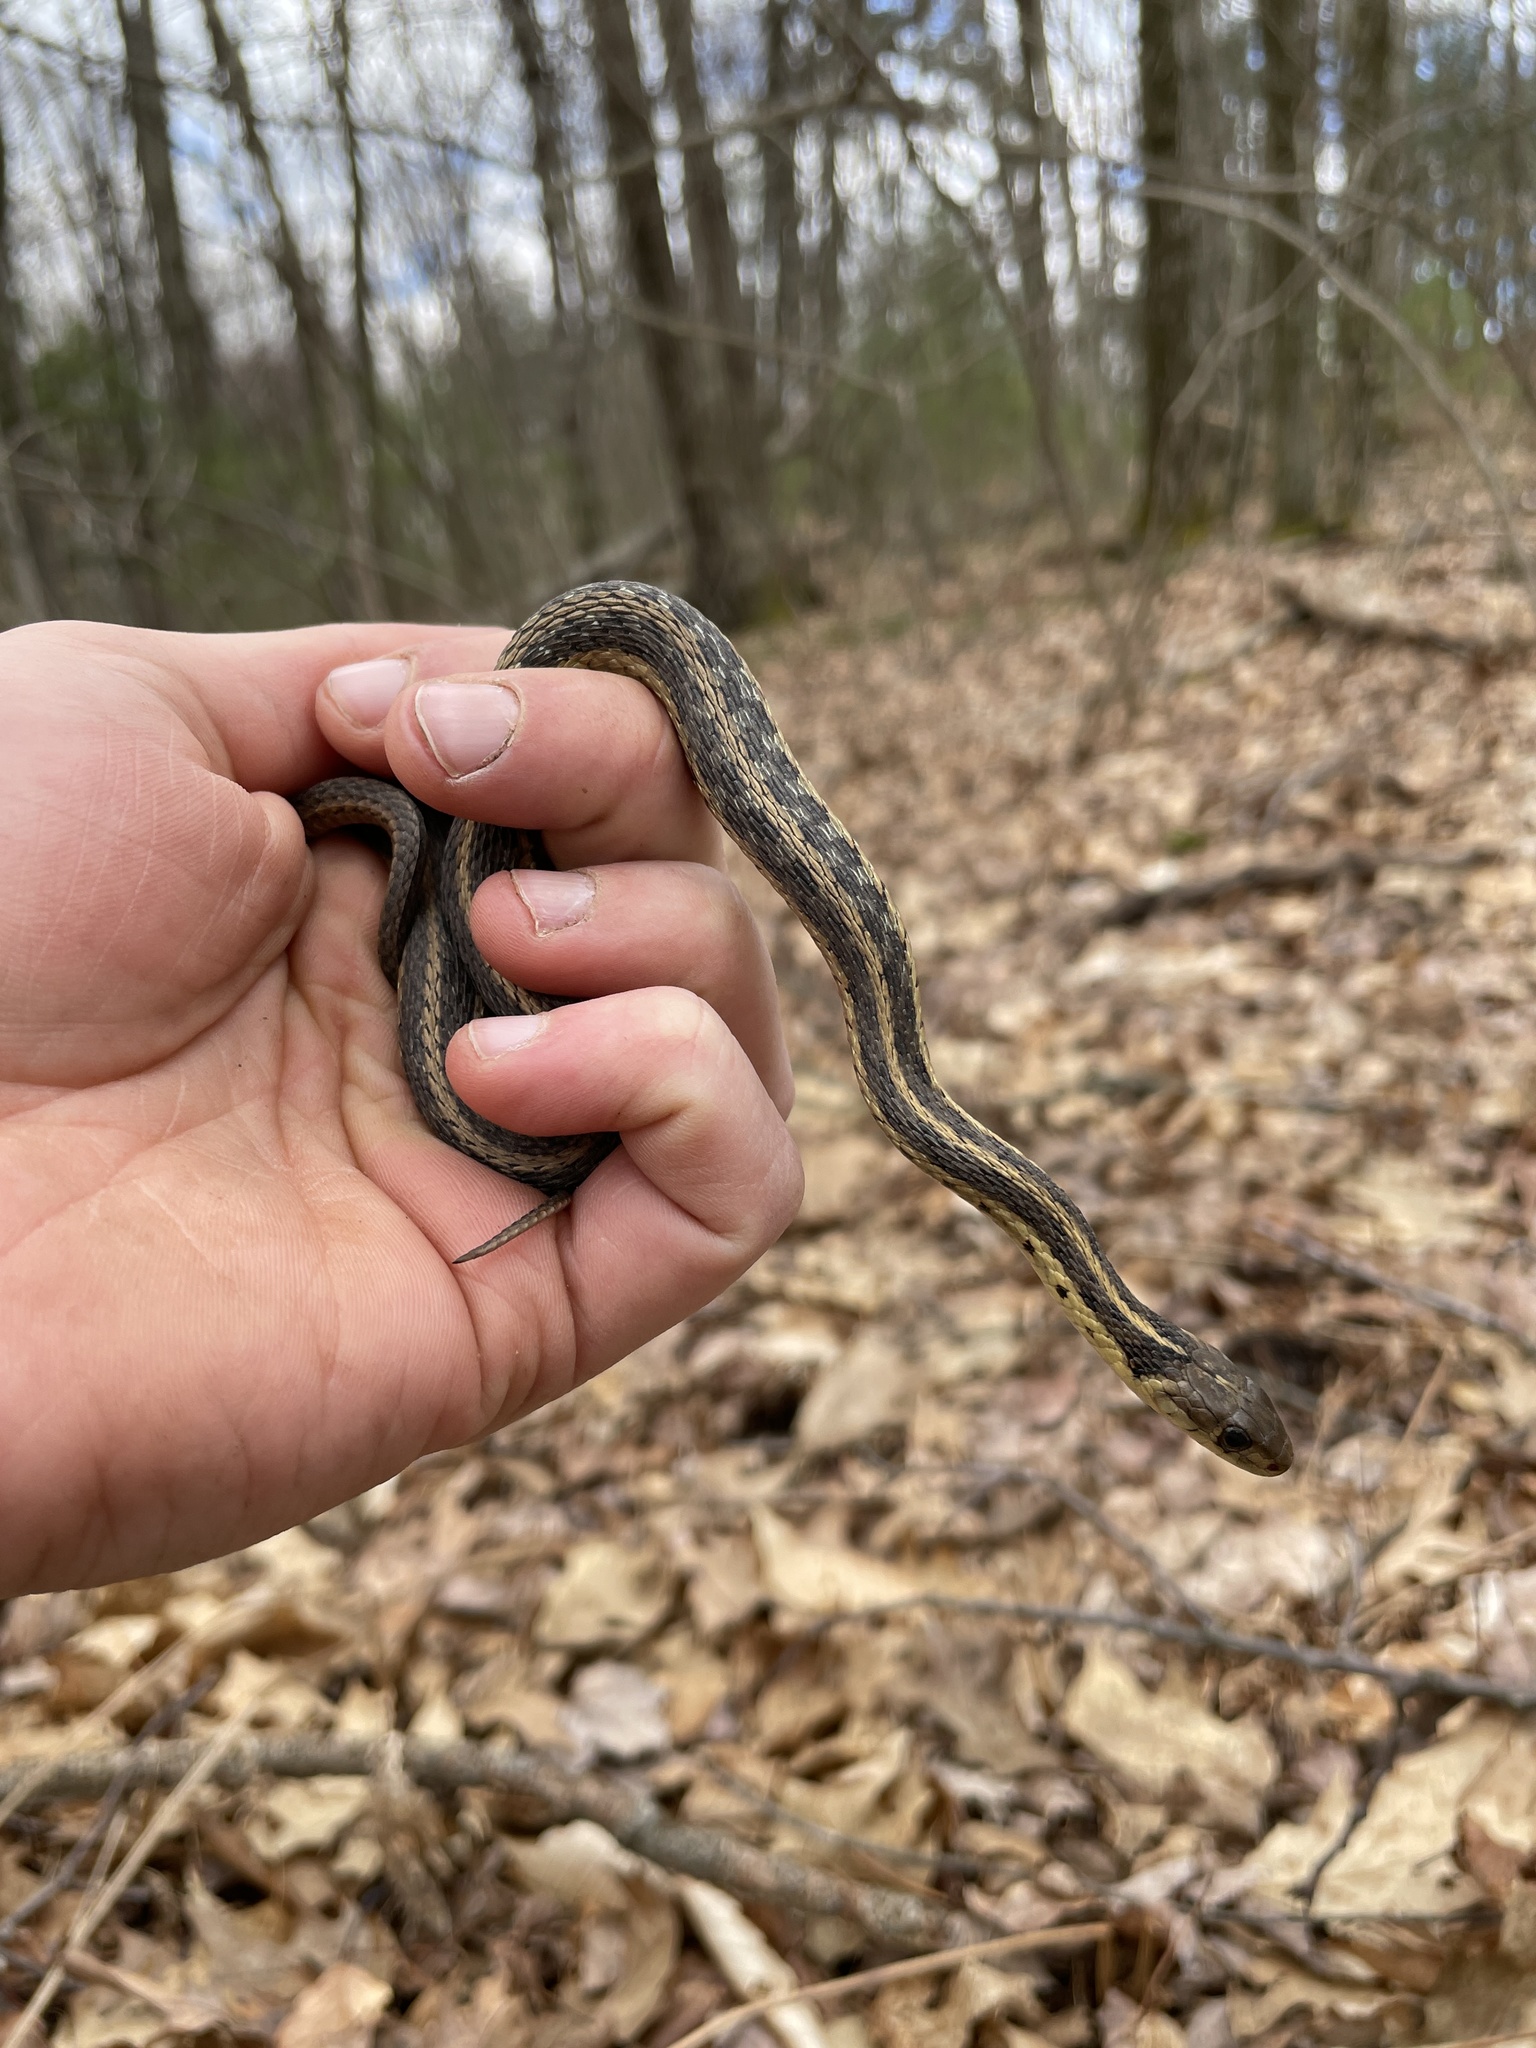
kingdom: Animalia
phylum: Chordata
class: Squamata
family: Colubridae
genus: Thamnophis
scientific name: Thamnophis sirtalis
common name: Common garter snake
